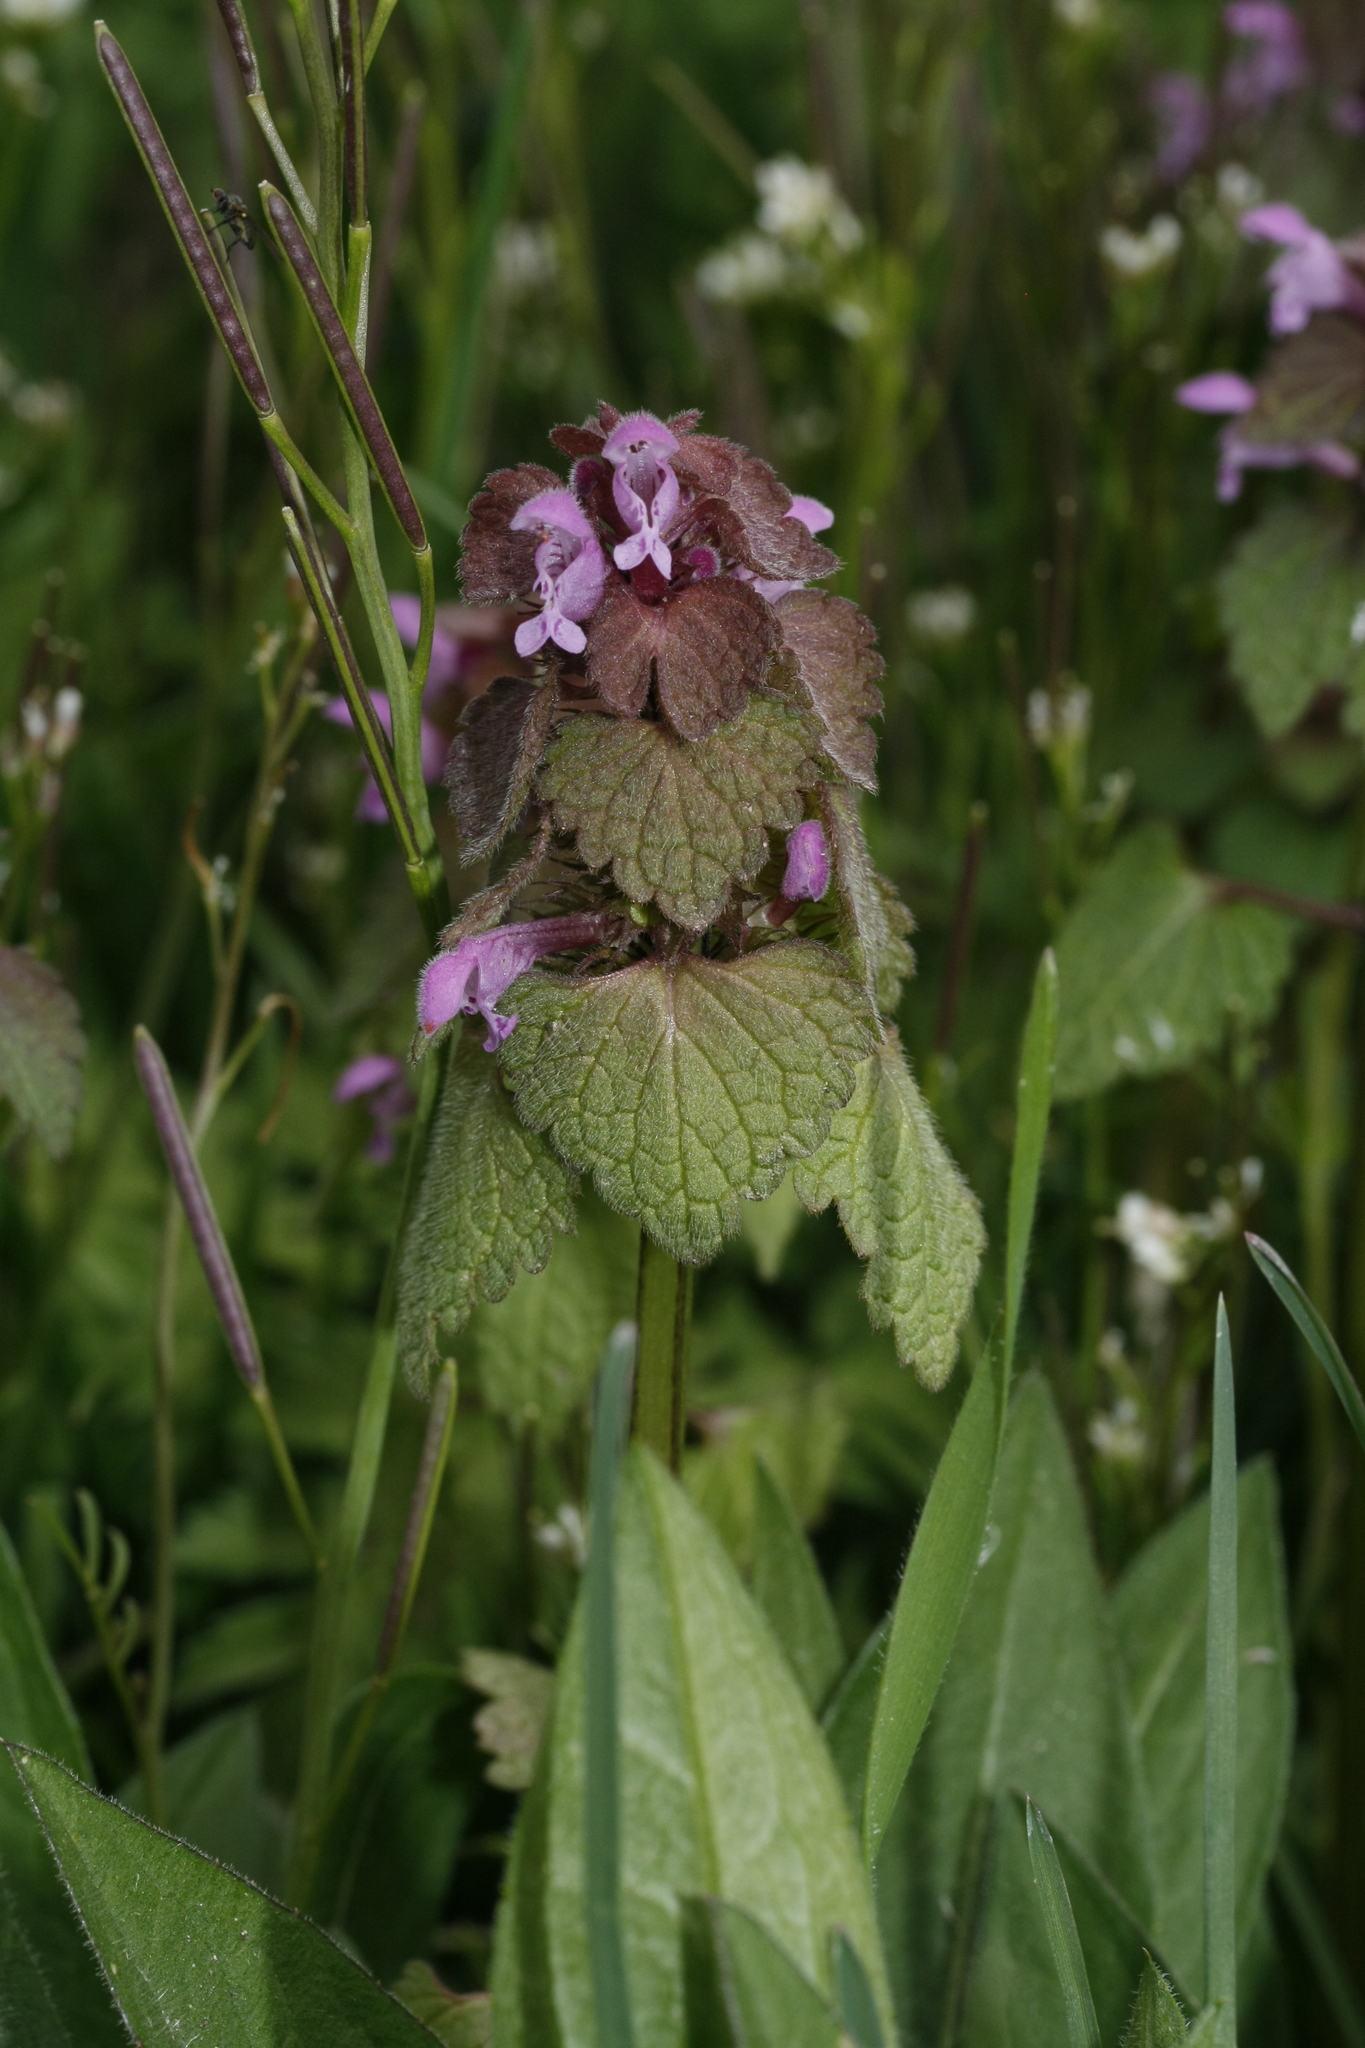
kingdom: Plantae
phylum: Tracheophyta
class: Magnoliopsida
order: Lamiales
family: Lamiaceae
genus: Lamium
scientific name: Lamium purpureum
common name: Red dead-nettle
